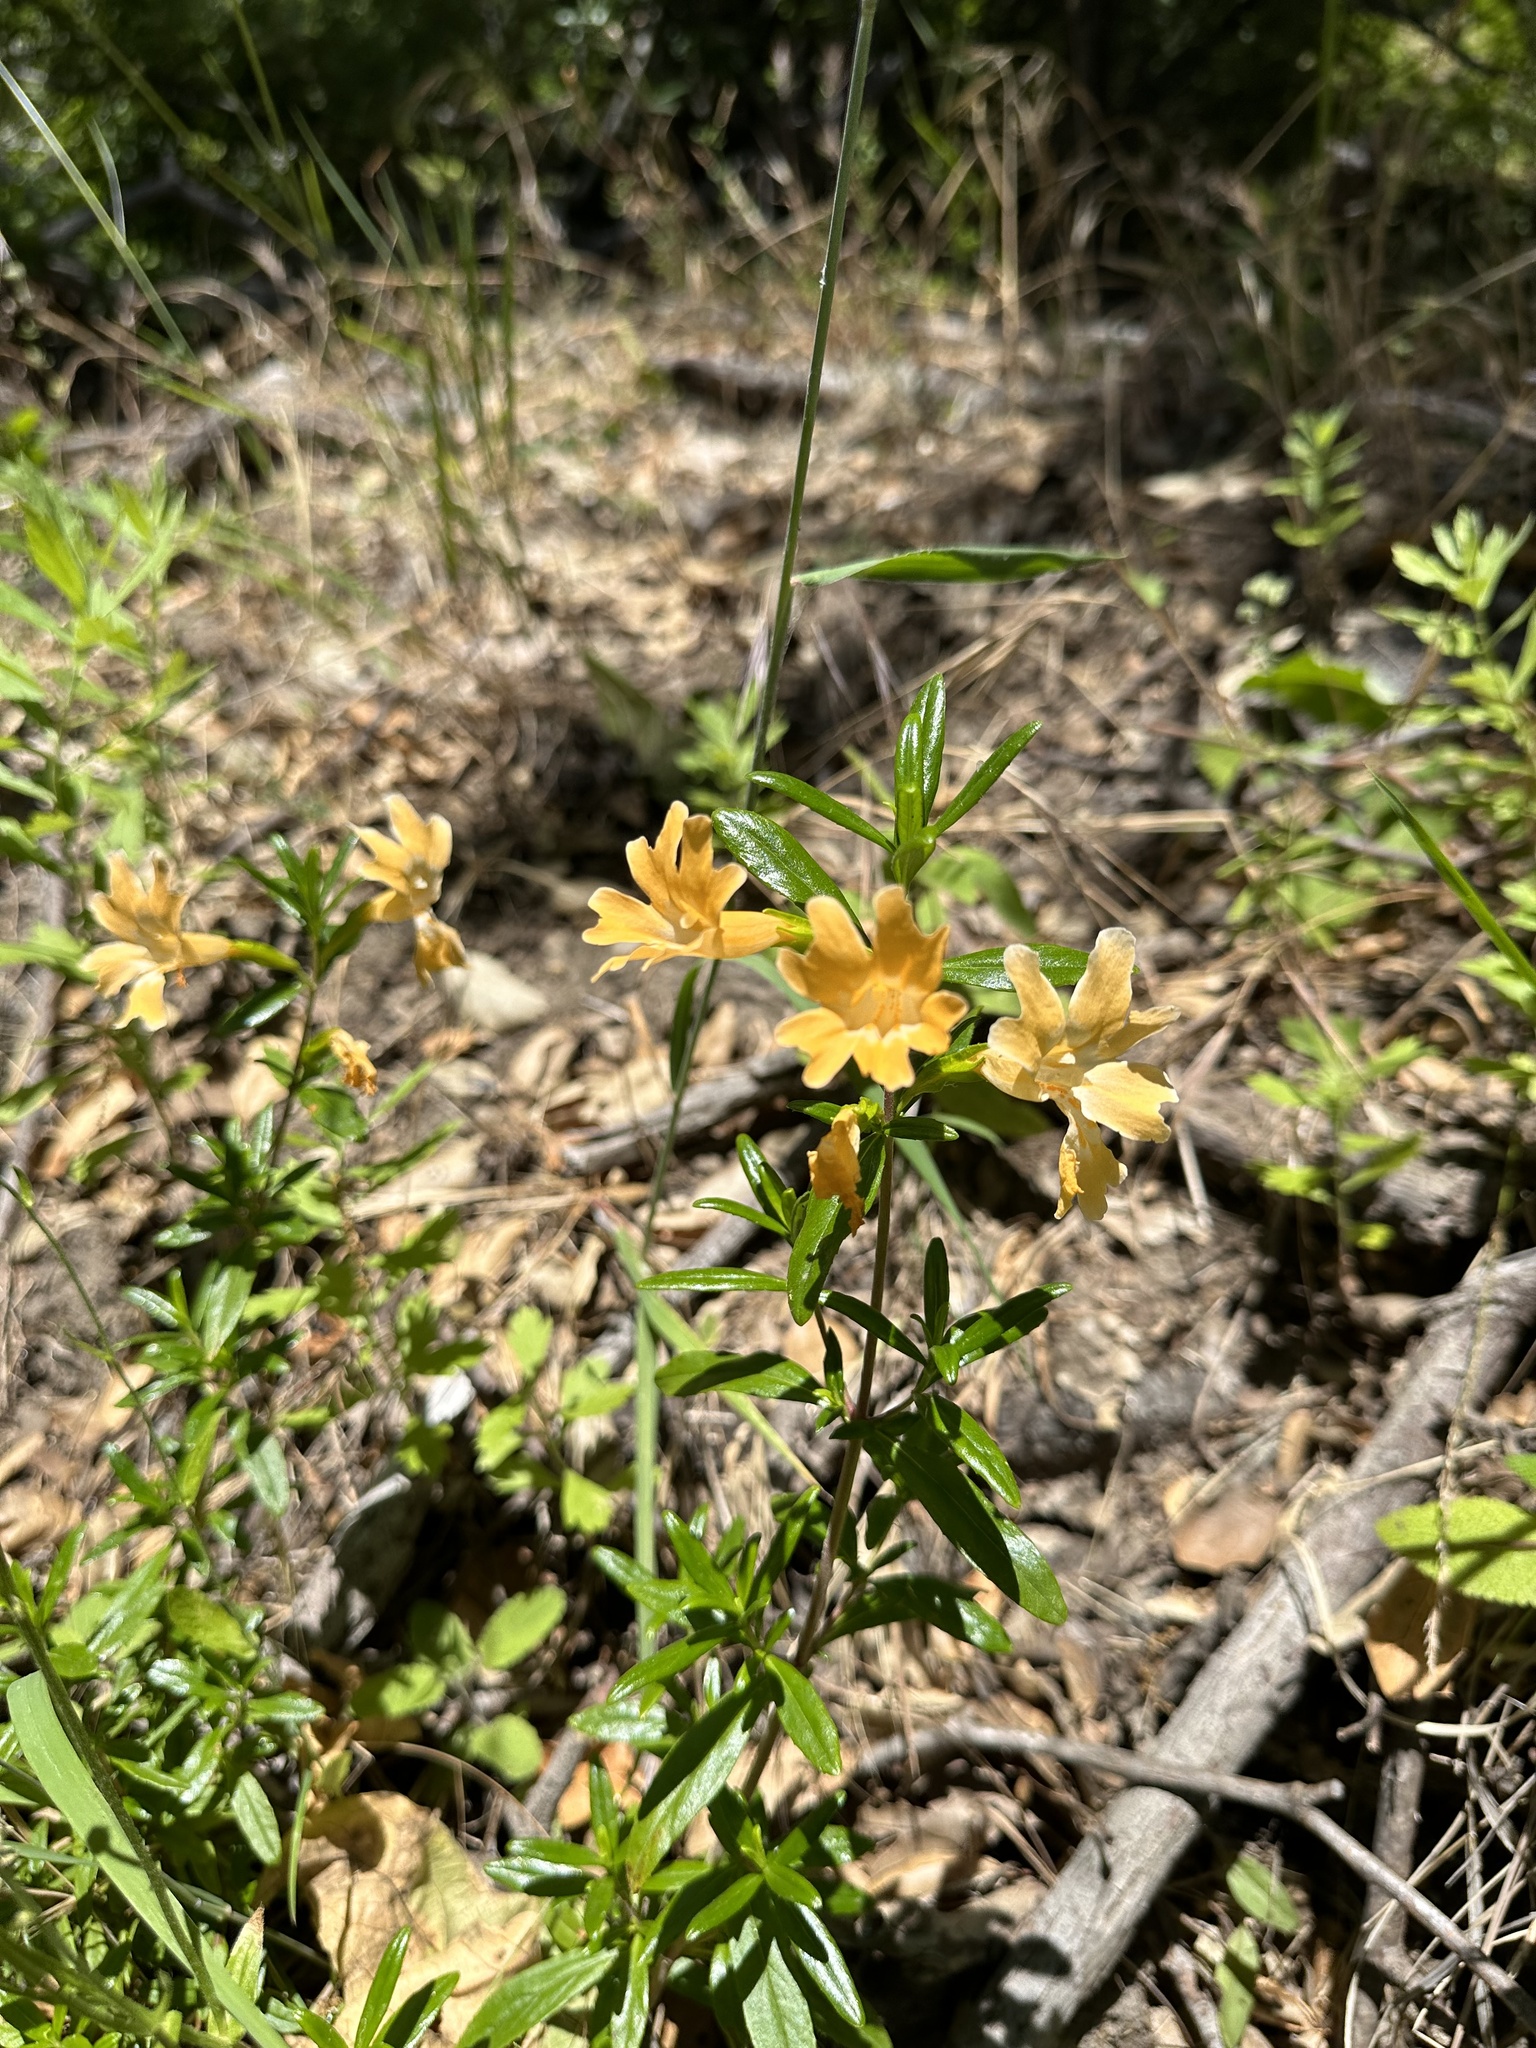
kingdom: Plantae
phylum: Tracheophyta
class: Magnoliopsida
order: Lamiales
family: Phrymaceae
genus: Diplacus
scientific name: Diplacus linearis
